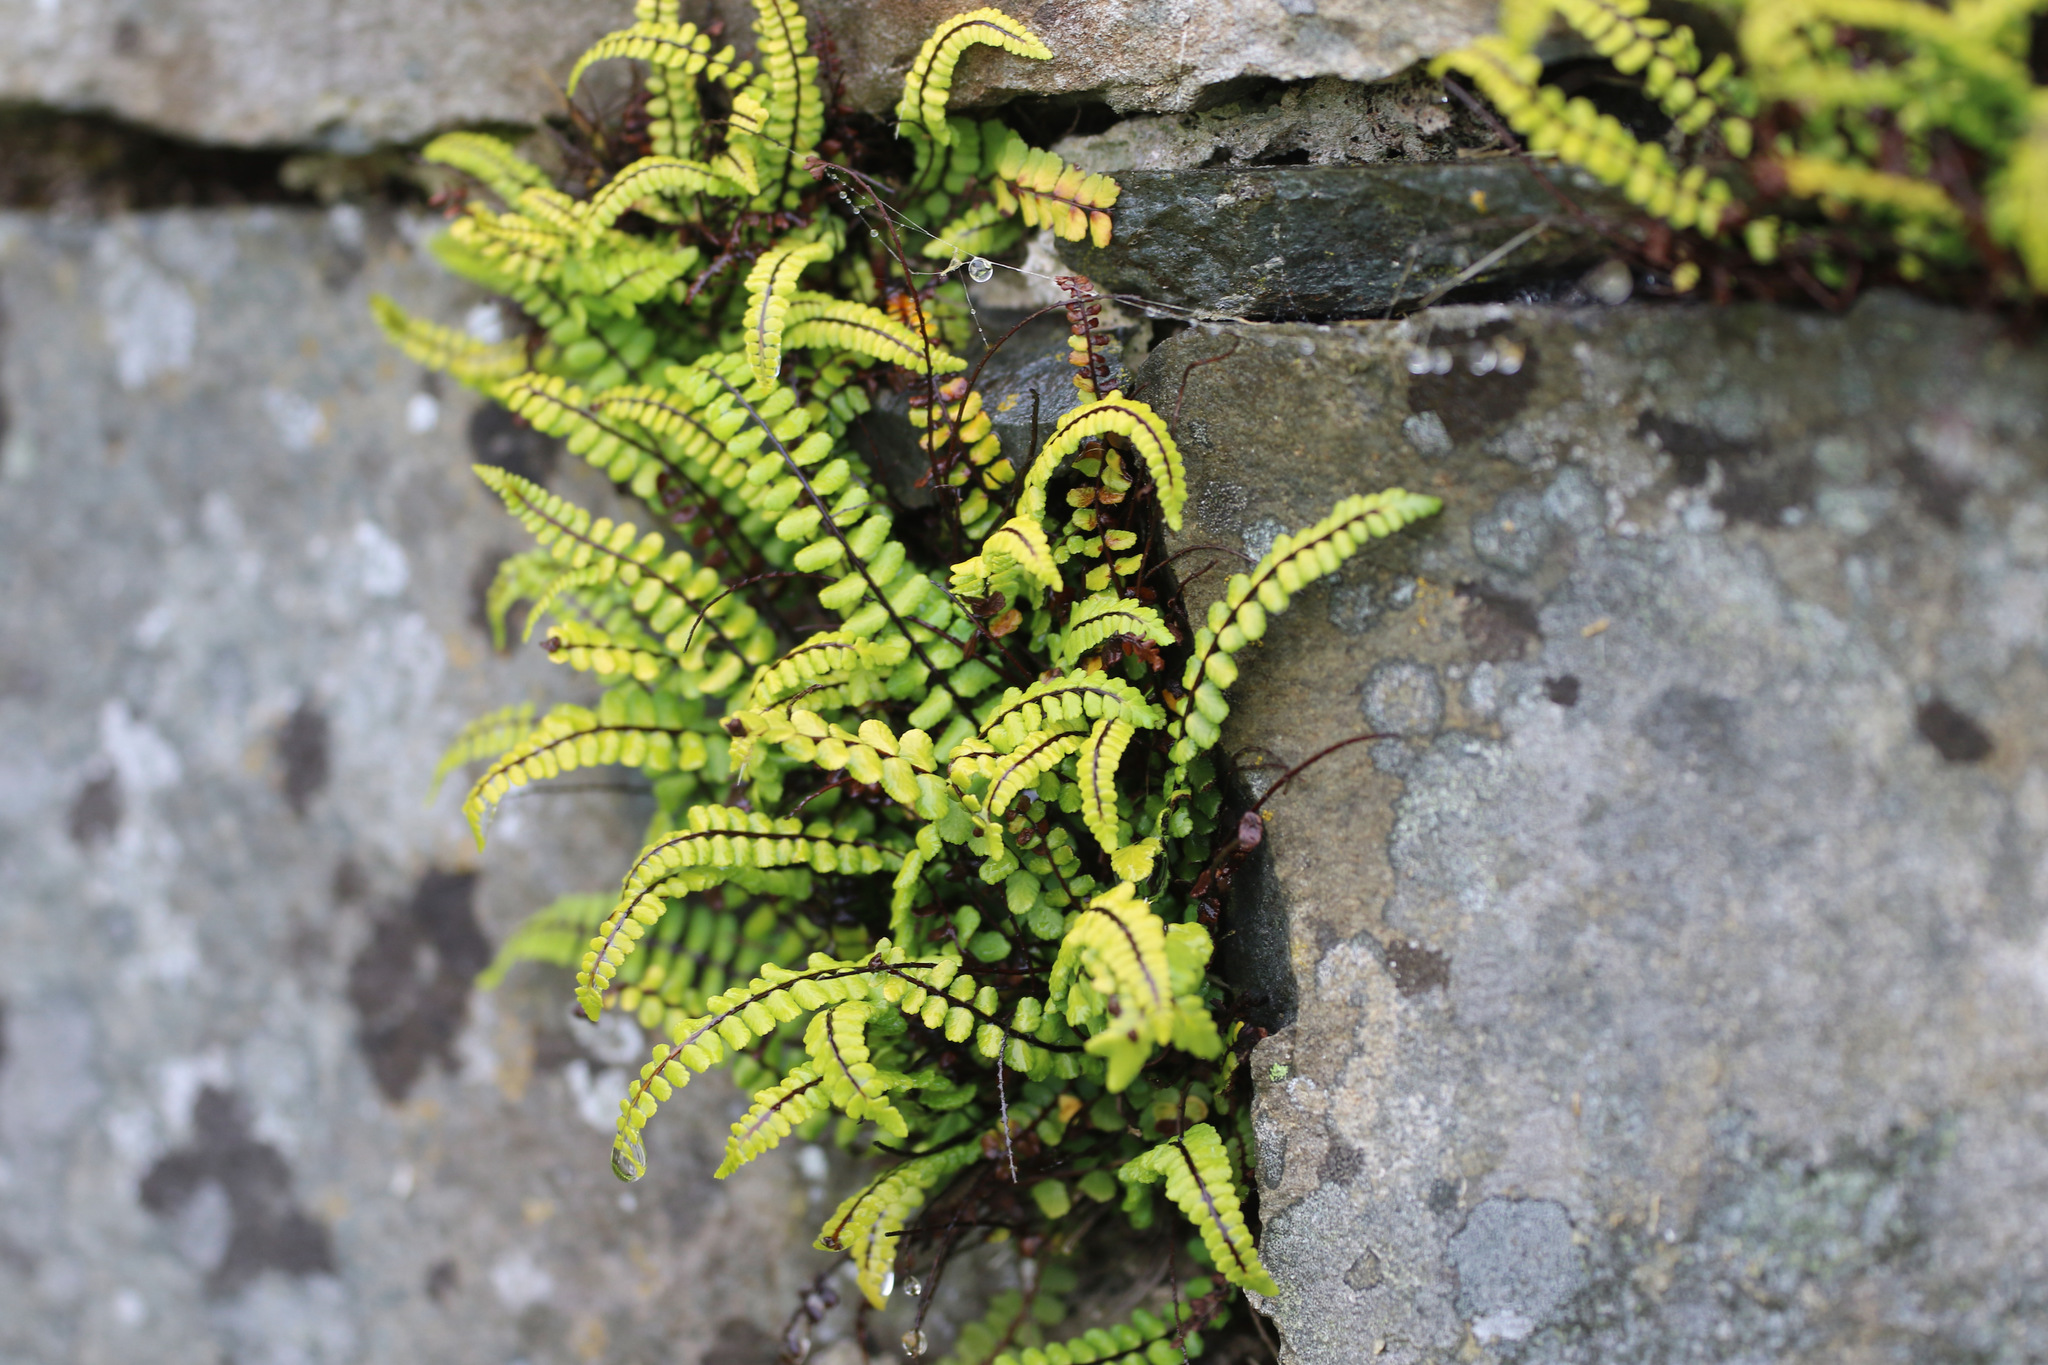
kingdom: Plantae
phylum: Tracheophyta
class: Polypodiopsida
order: Polypodiales
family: Aspleniaceae
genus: Asplenium
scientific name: Asplenium trichomanes
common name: Maidenhair spleenwort
